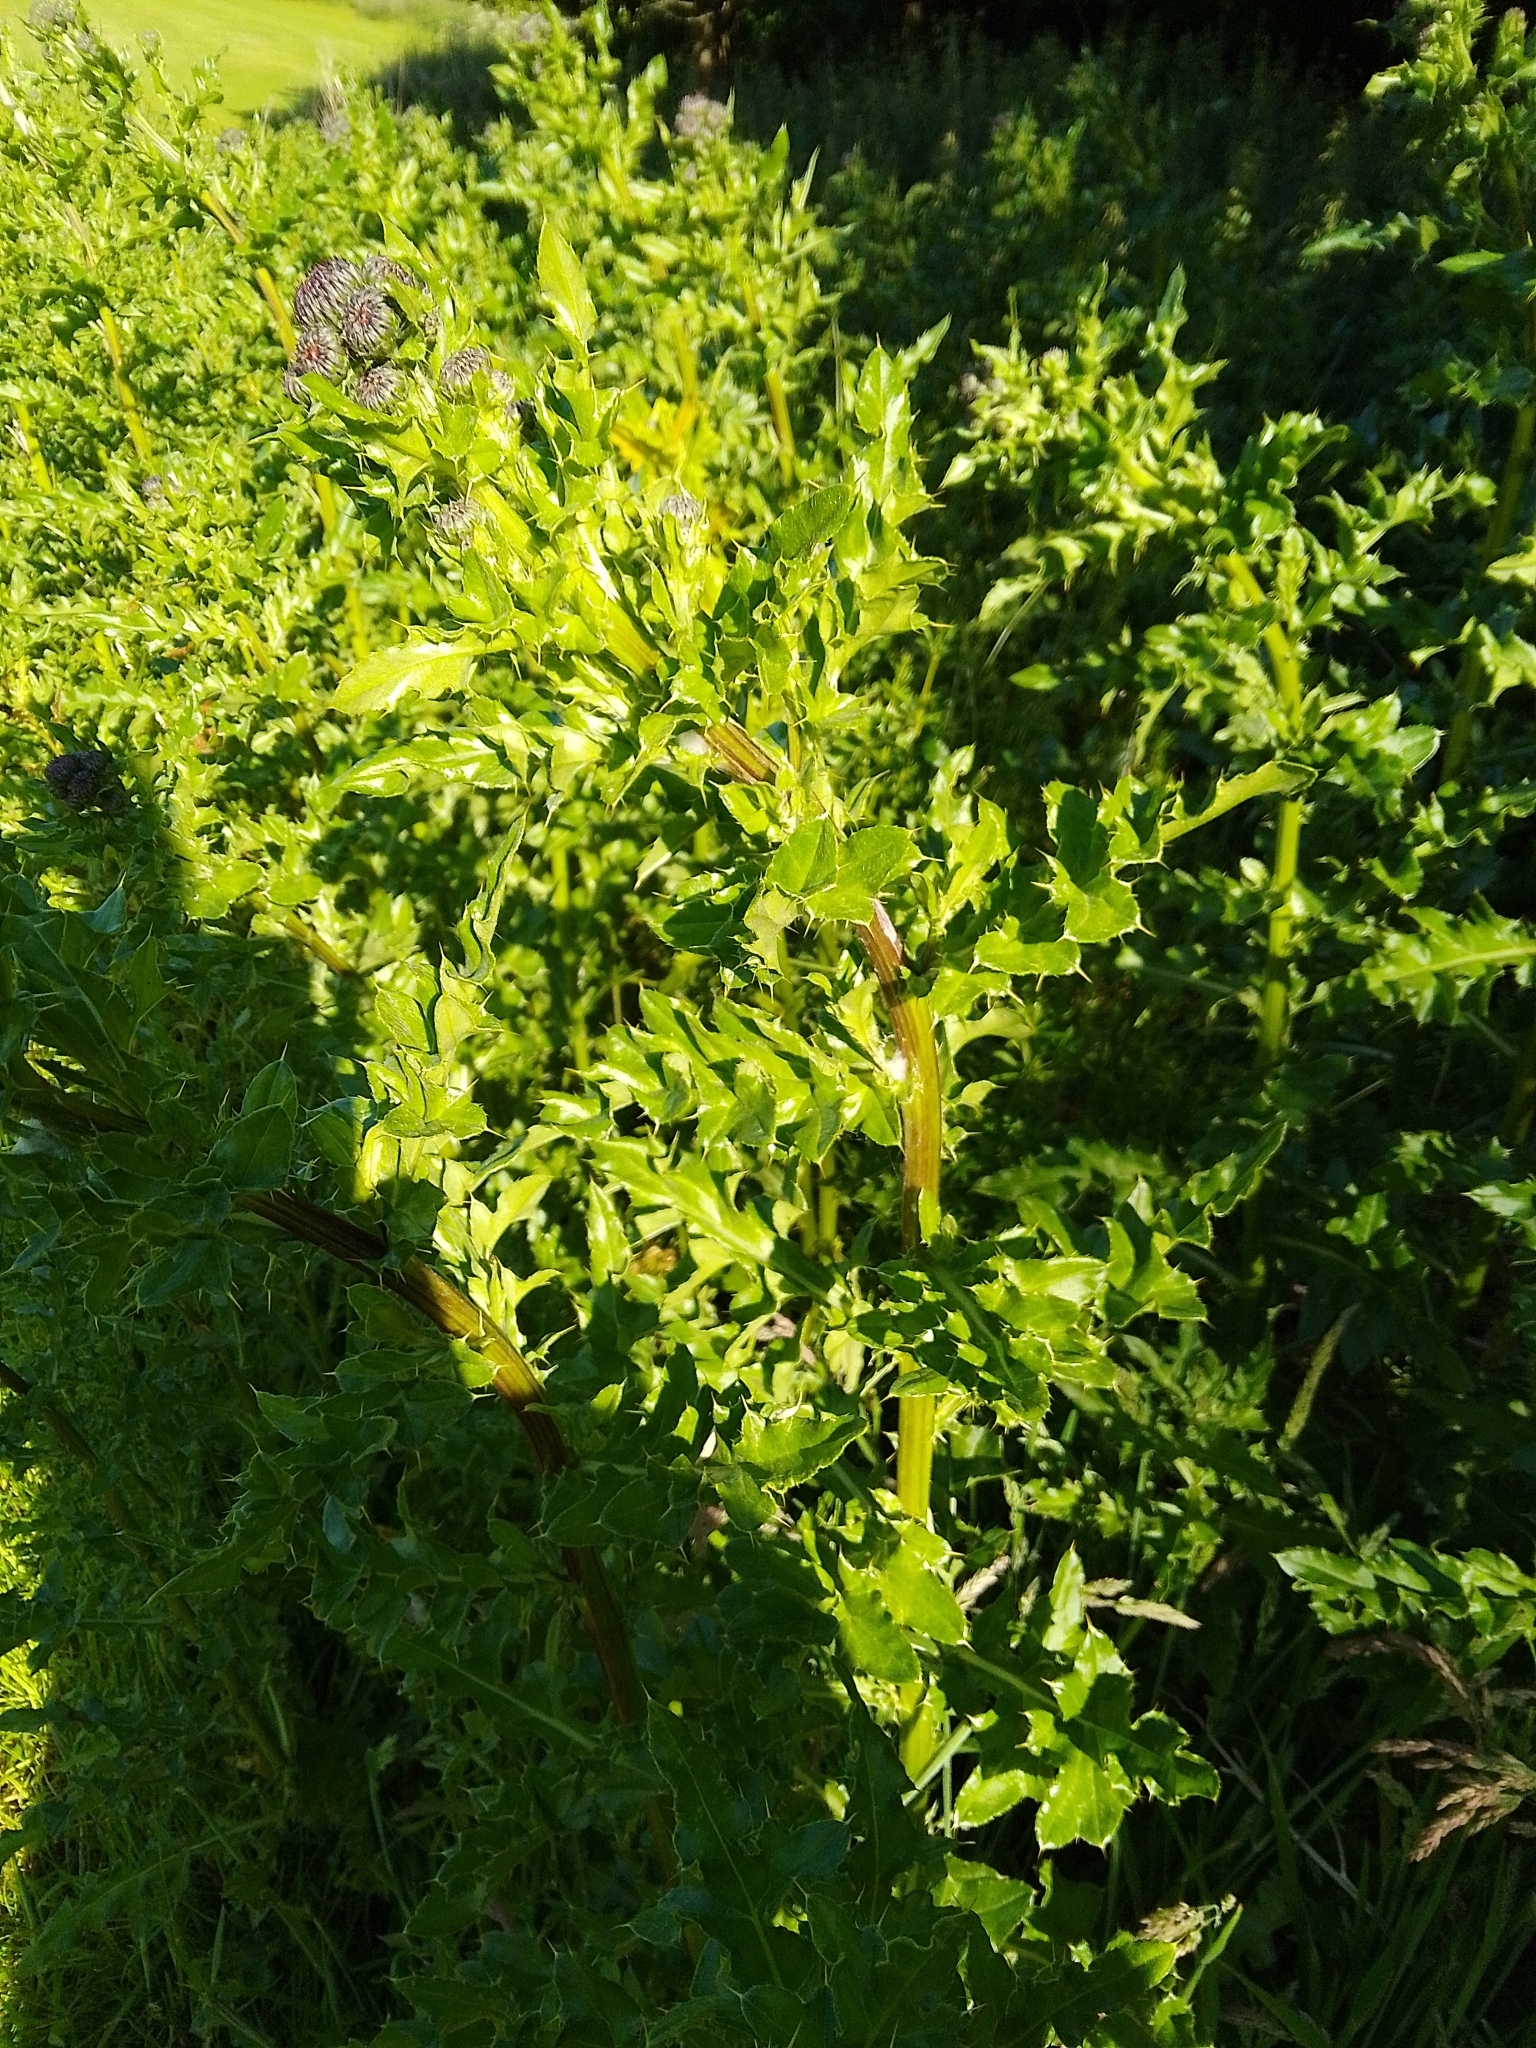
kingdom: Plantae
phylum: Tracheophyta
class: Magnoliopsida
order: Asterales
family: Asteraceae
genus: Cirsium
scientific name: Cirsium arvense
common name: Creeping thistle
